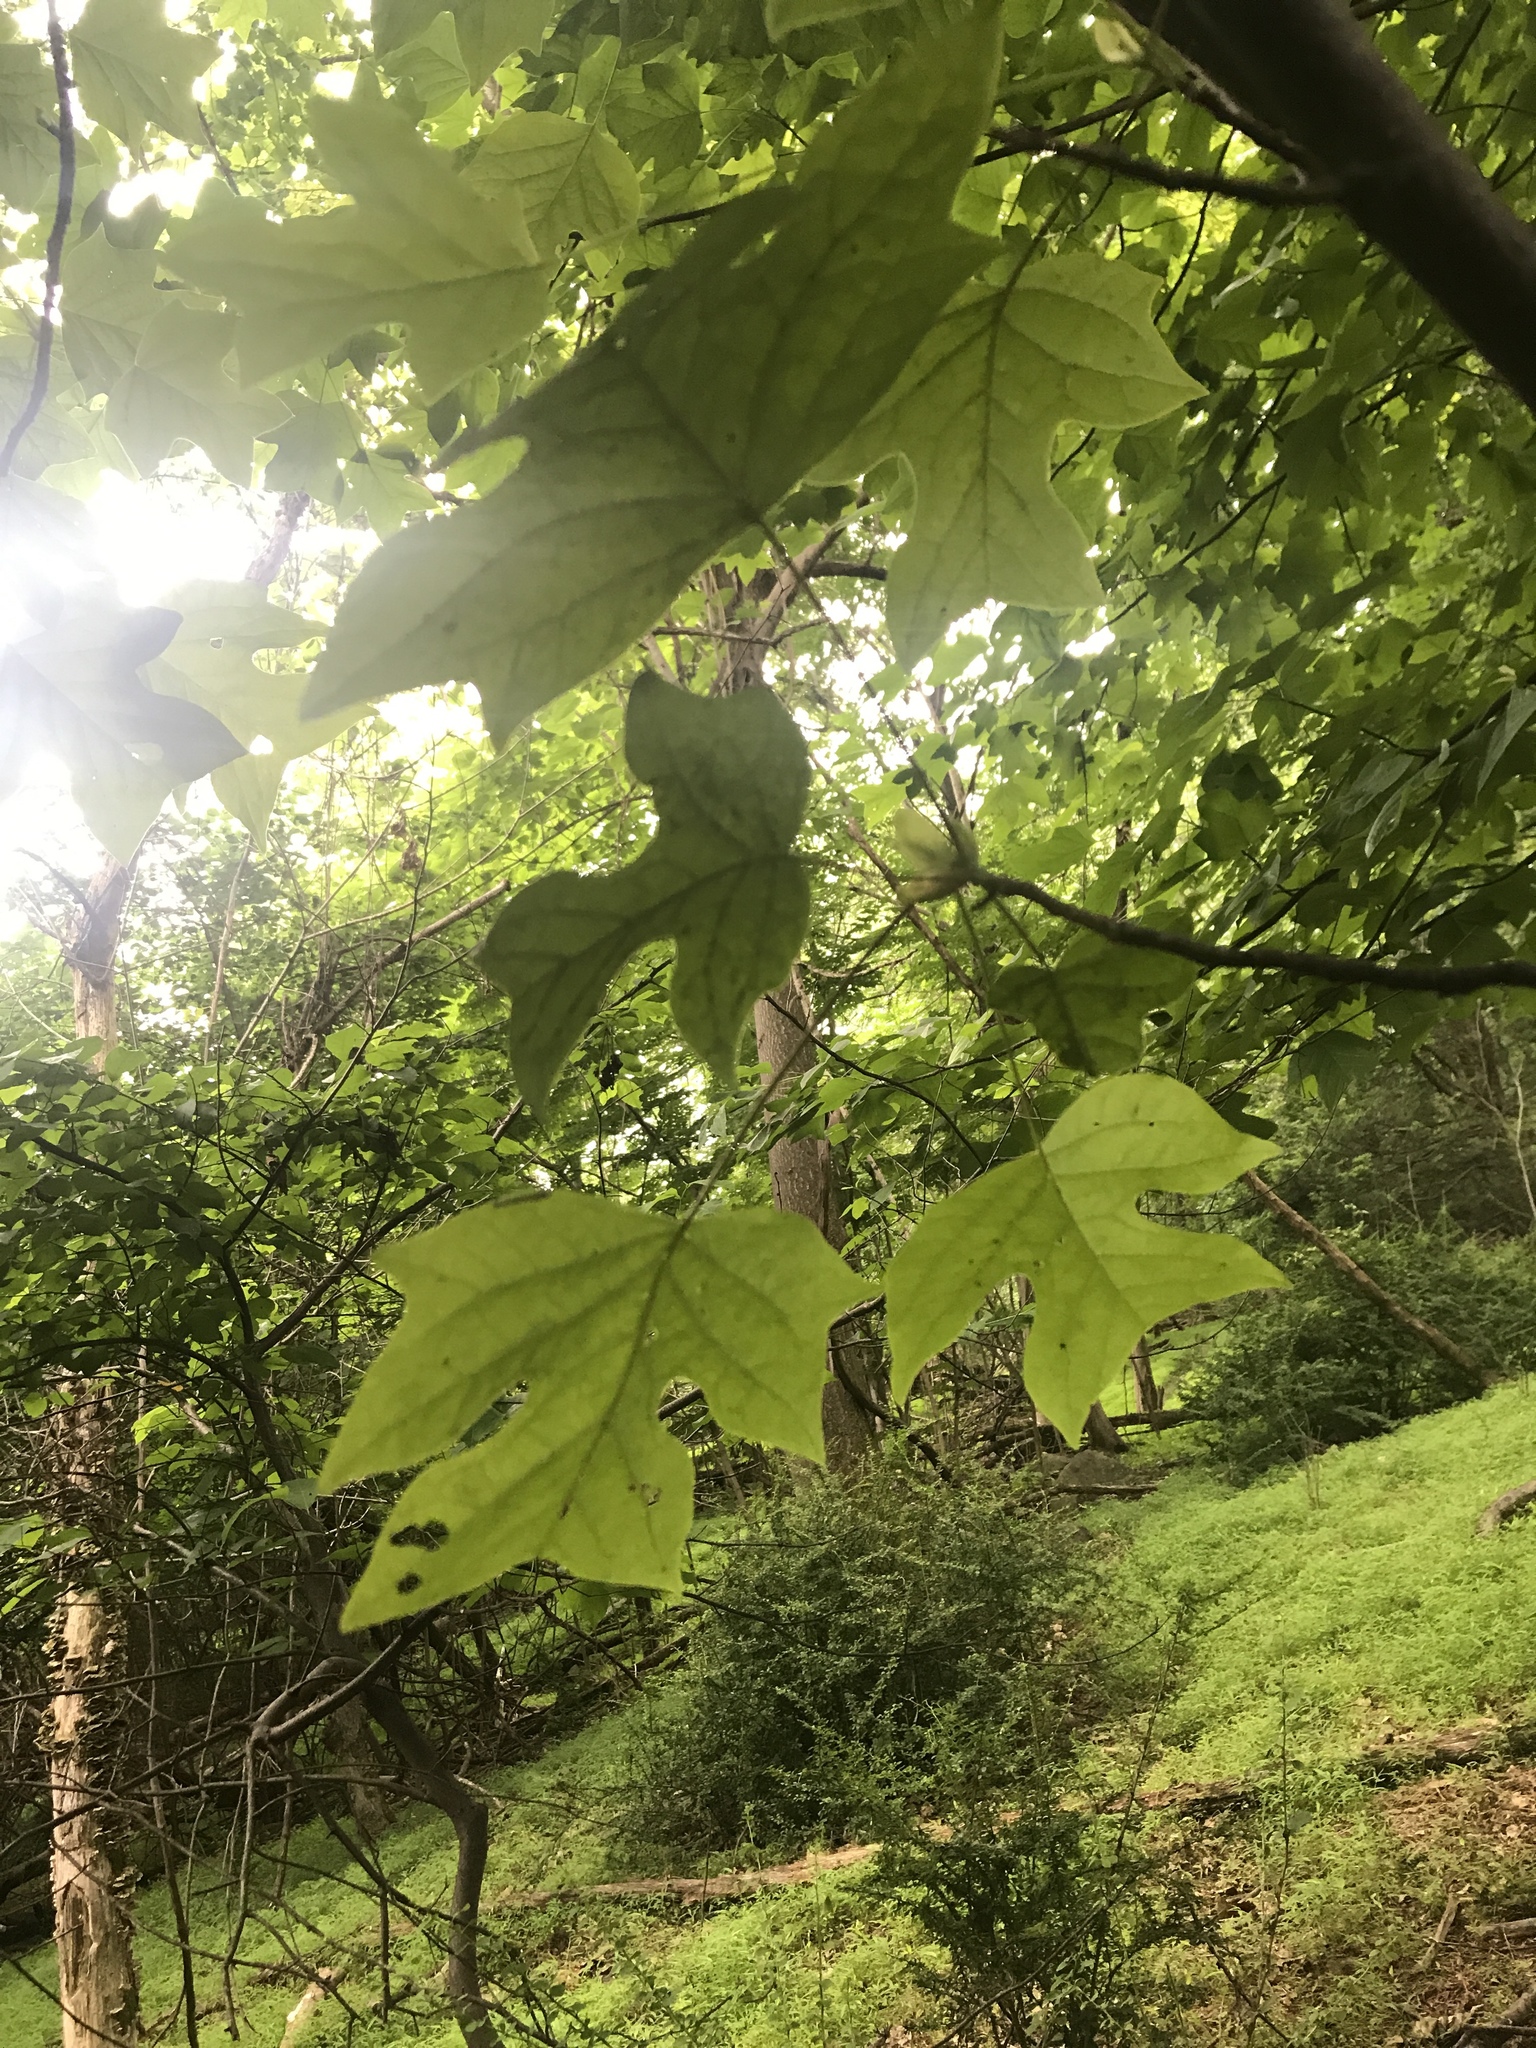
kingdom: Plantae
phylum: Tracheophyta
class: Magnoliopsida
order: Magnoliales
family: Magnoliaceae
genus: Liriodendron
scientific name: Liriodendron tulipifera
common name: Tulip tree
